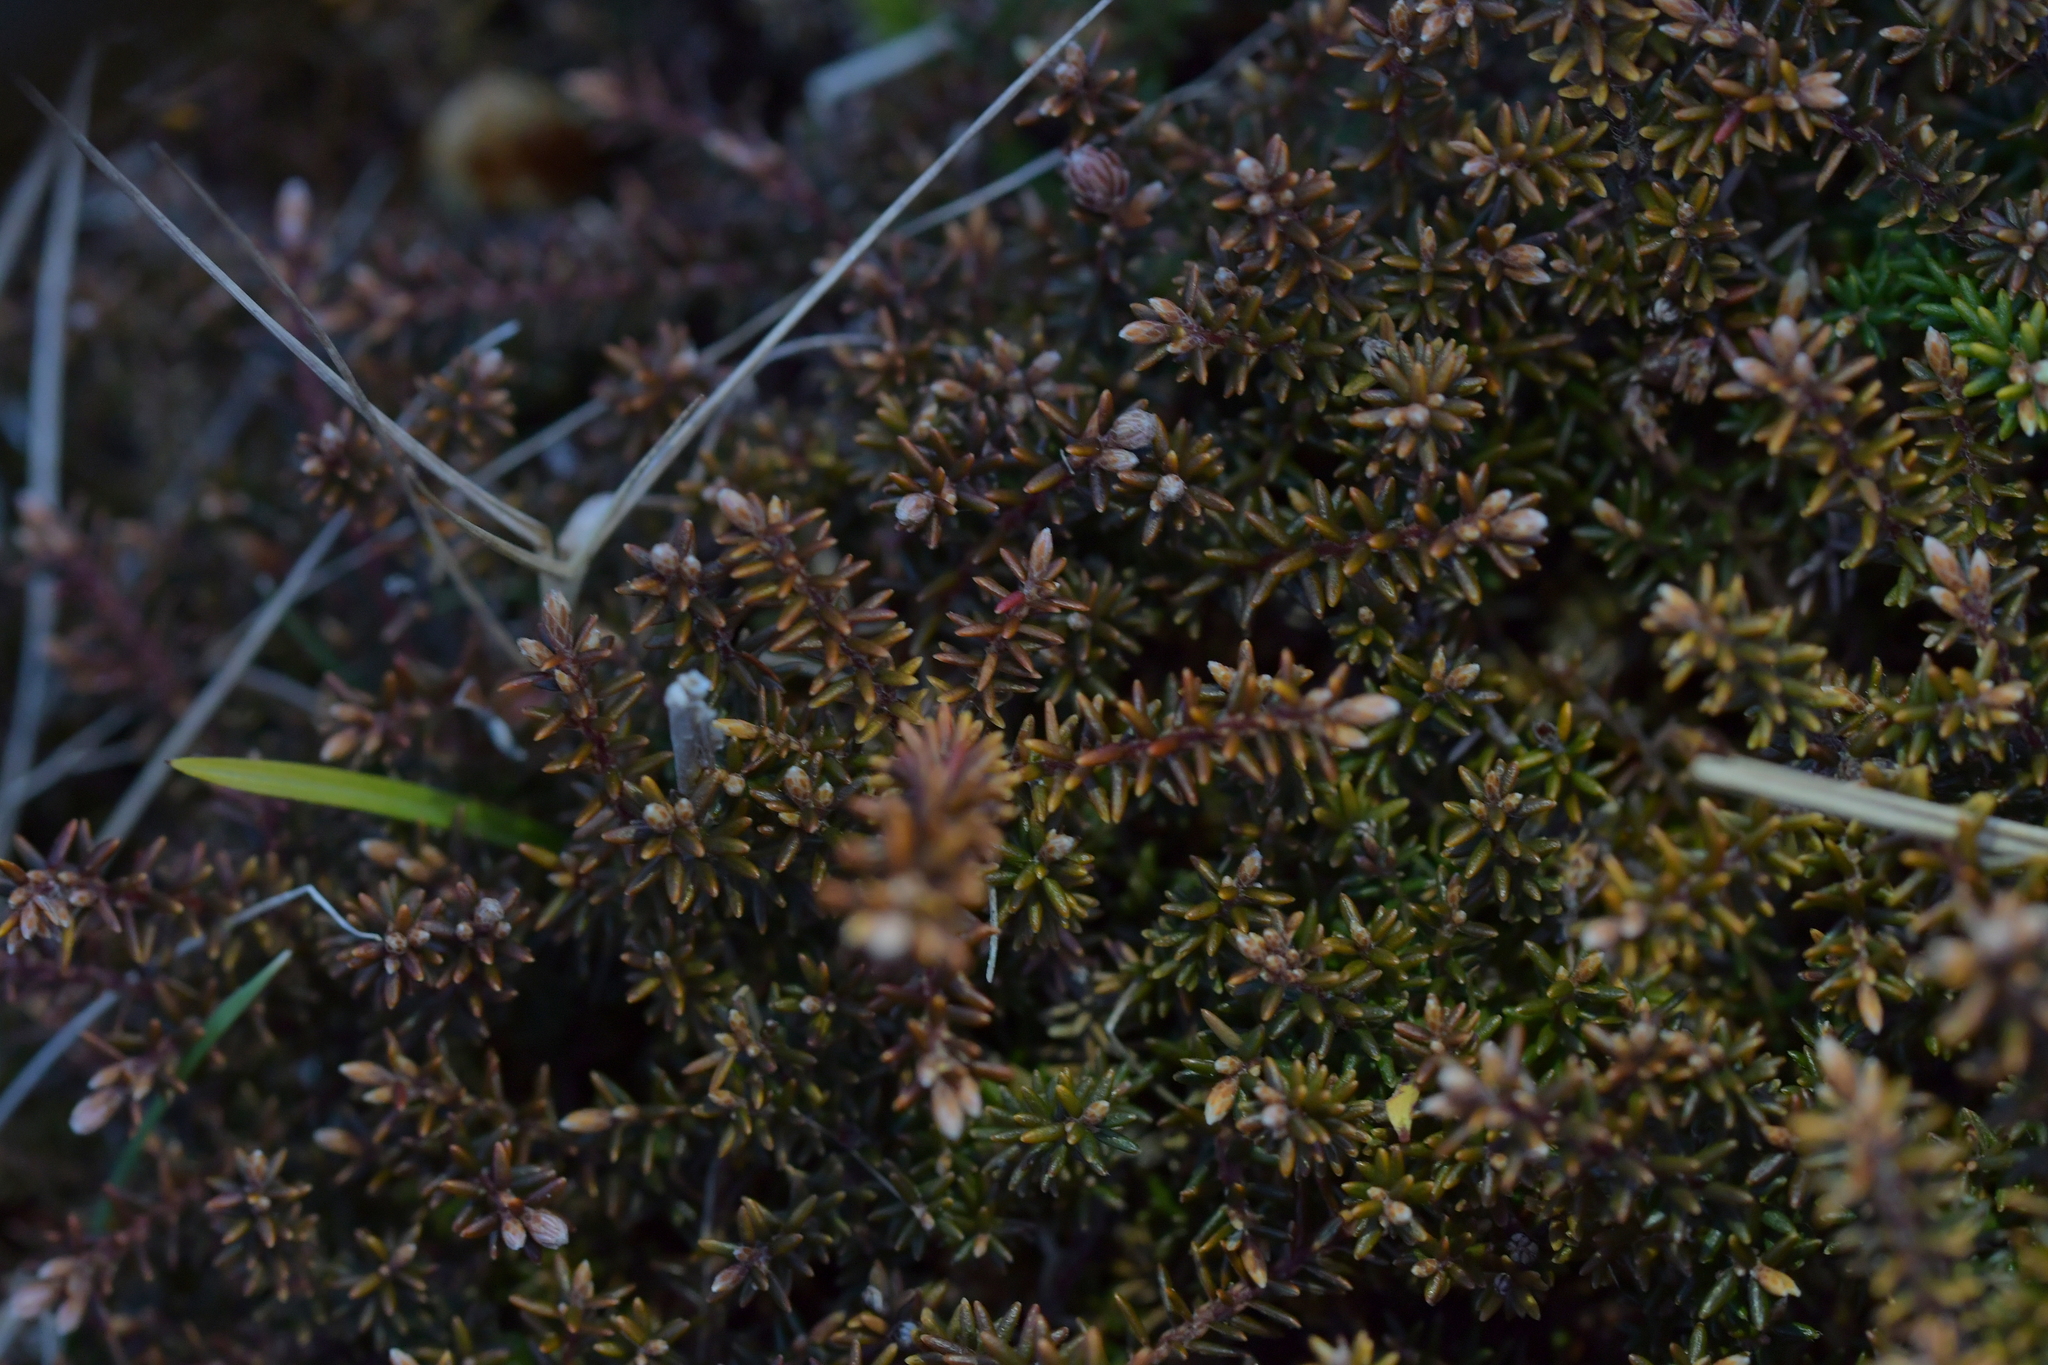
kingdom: Plantae
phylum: Tracheophyta
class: Magnoliopsida
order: Ericales
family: Ericaceae
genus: Androstoma
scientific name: Androstoma empetrifolia
